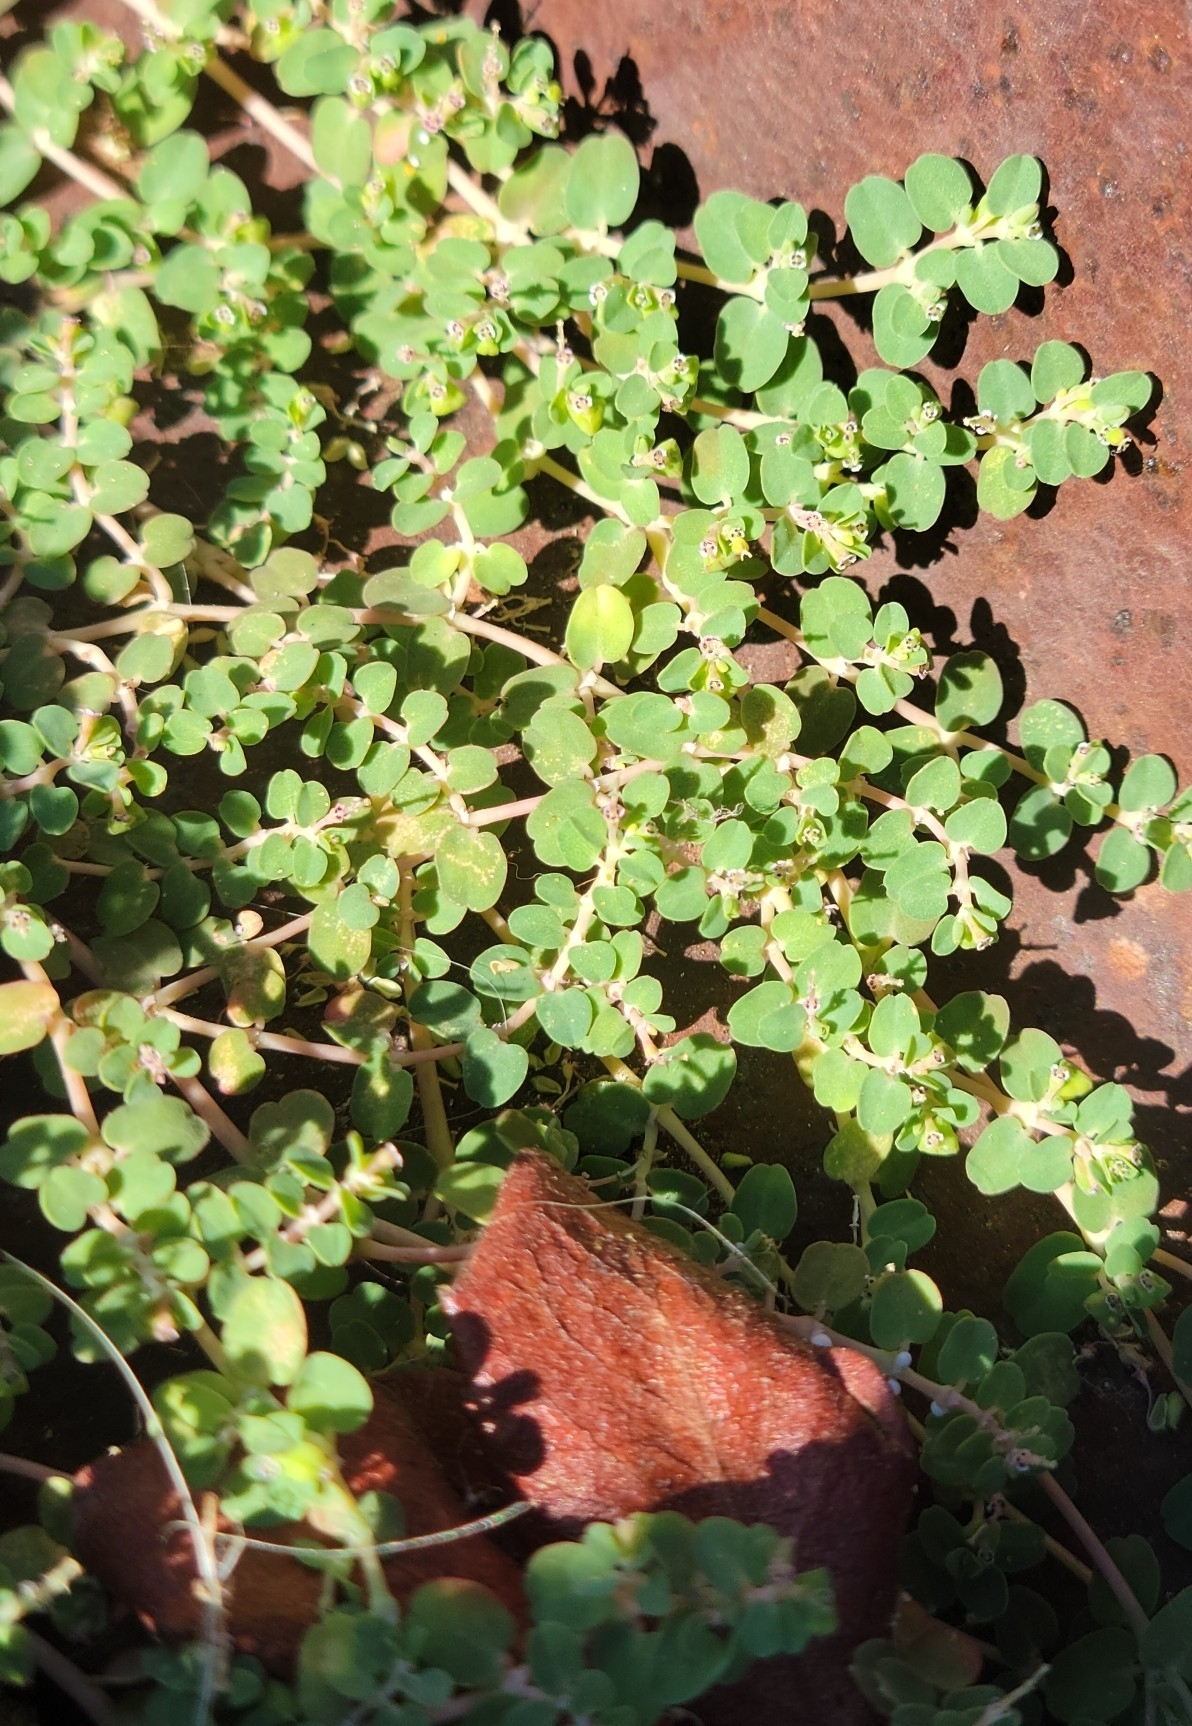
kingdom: Plantae
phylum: Tracheophyta
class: Magnoliopsida
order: Malpighiales
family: Euphorbiaceae
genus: Euphorbia
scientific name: Euphorbia serpens
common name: Matted sandmat
